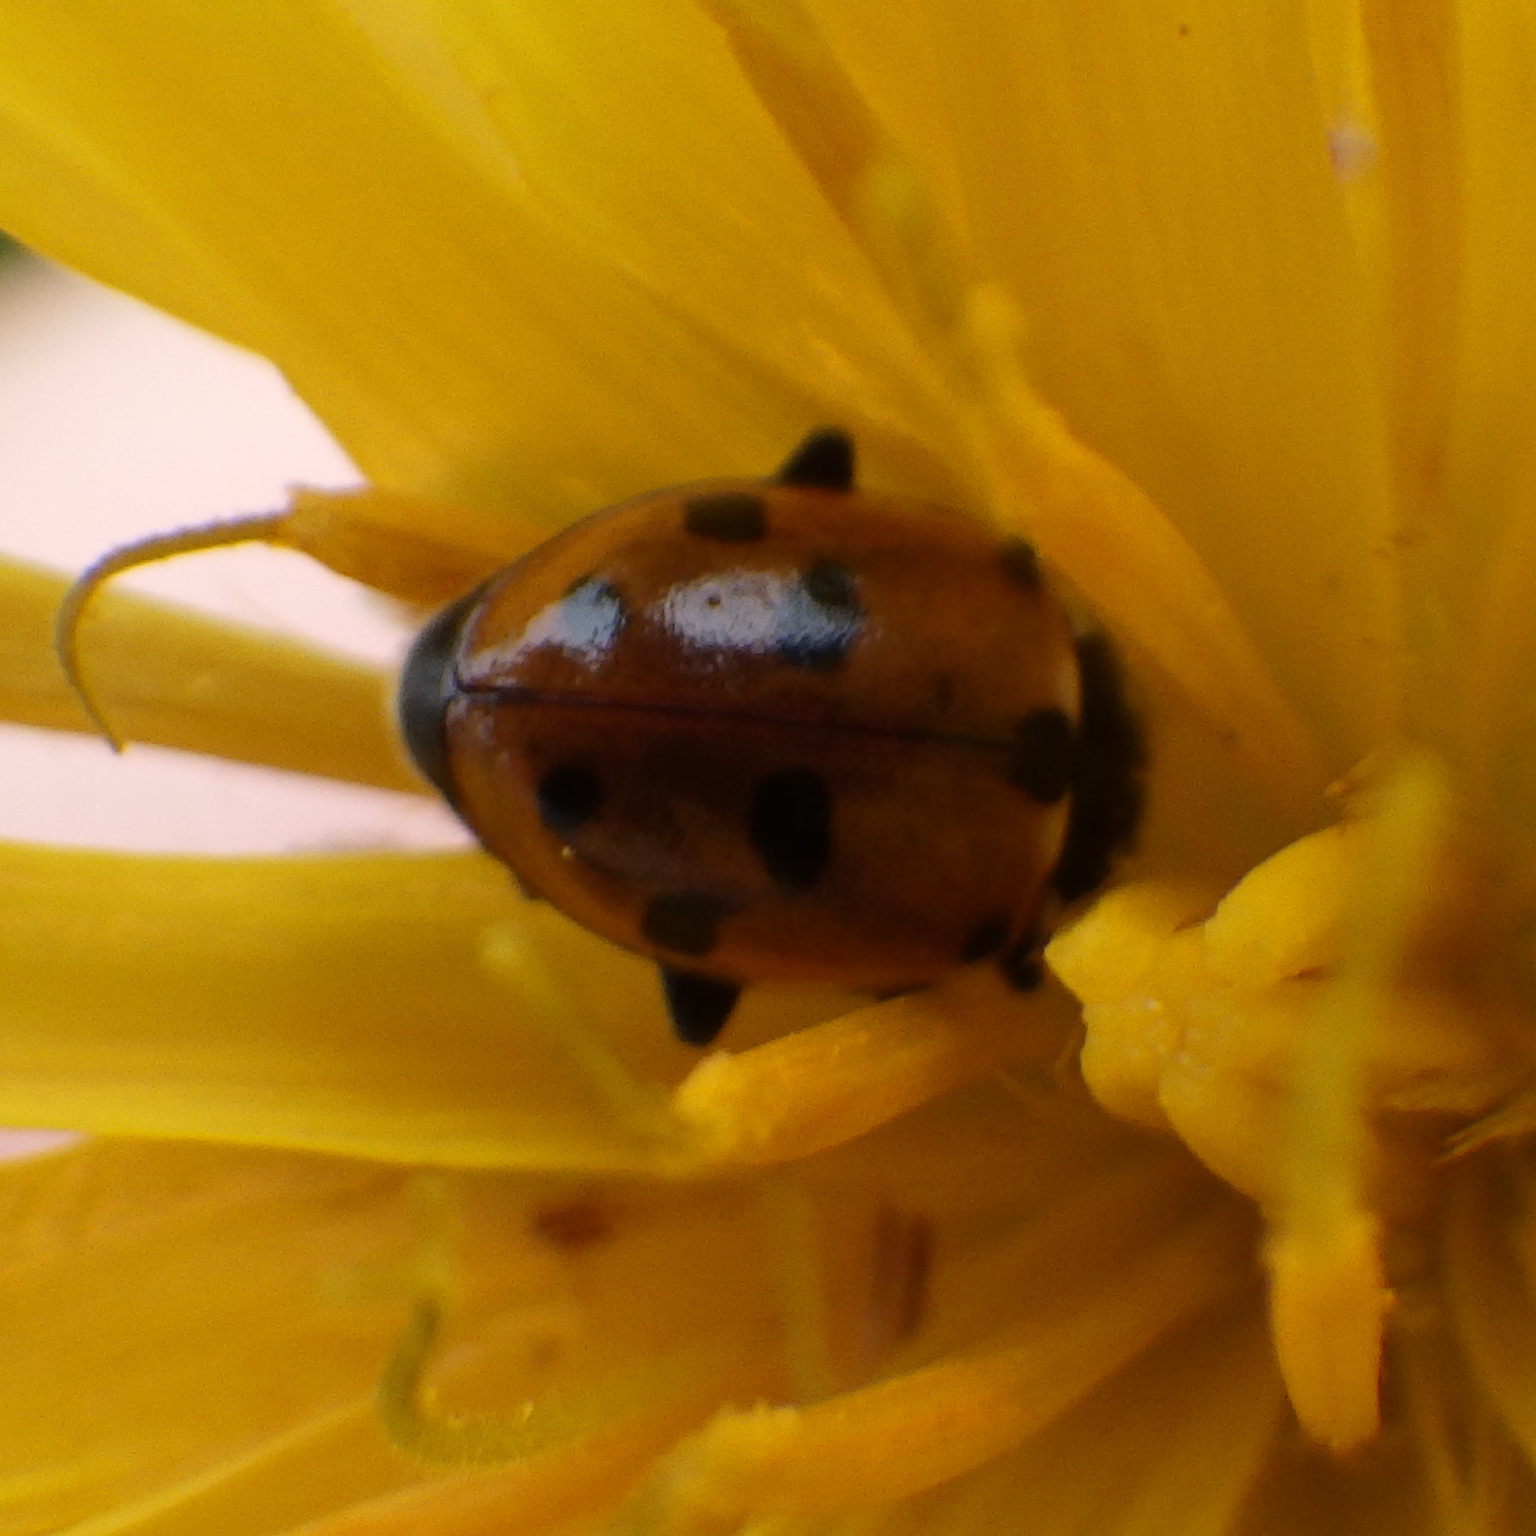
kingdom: Animalia
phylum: Arthropoda
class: Insecta
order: Coleoptera
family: Coccinellidae
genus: Hippodamia
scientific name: Hippodamia variegata
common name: Ladybird beetle
